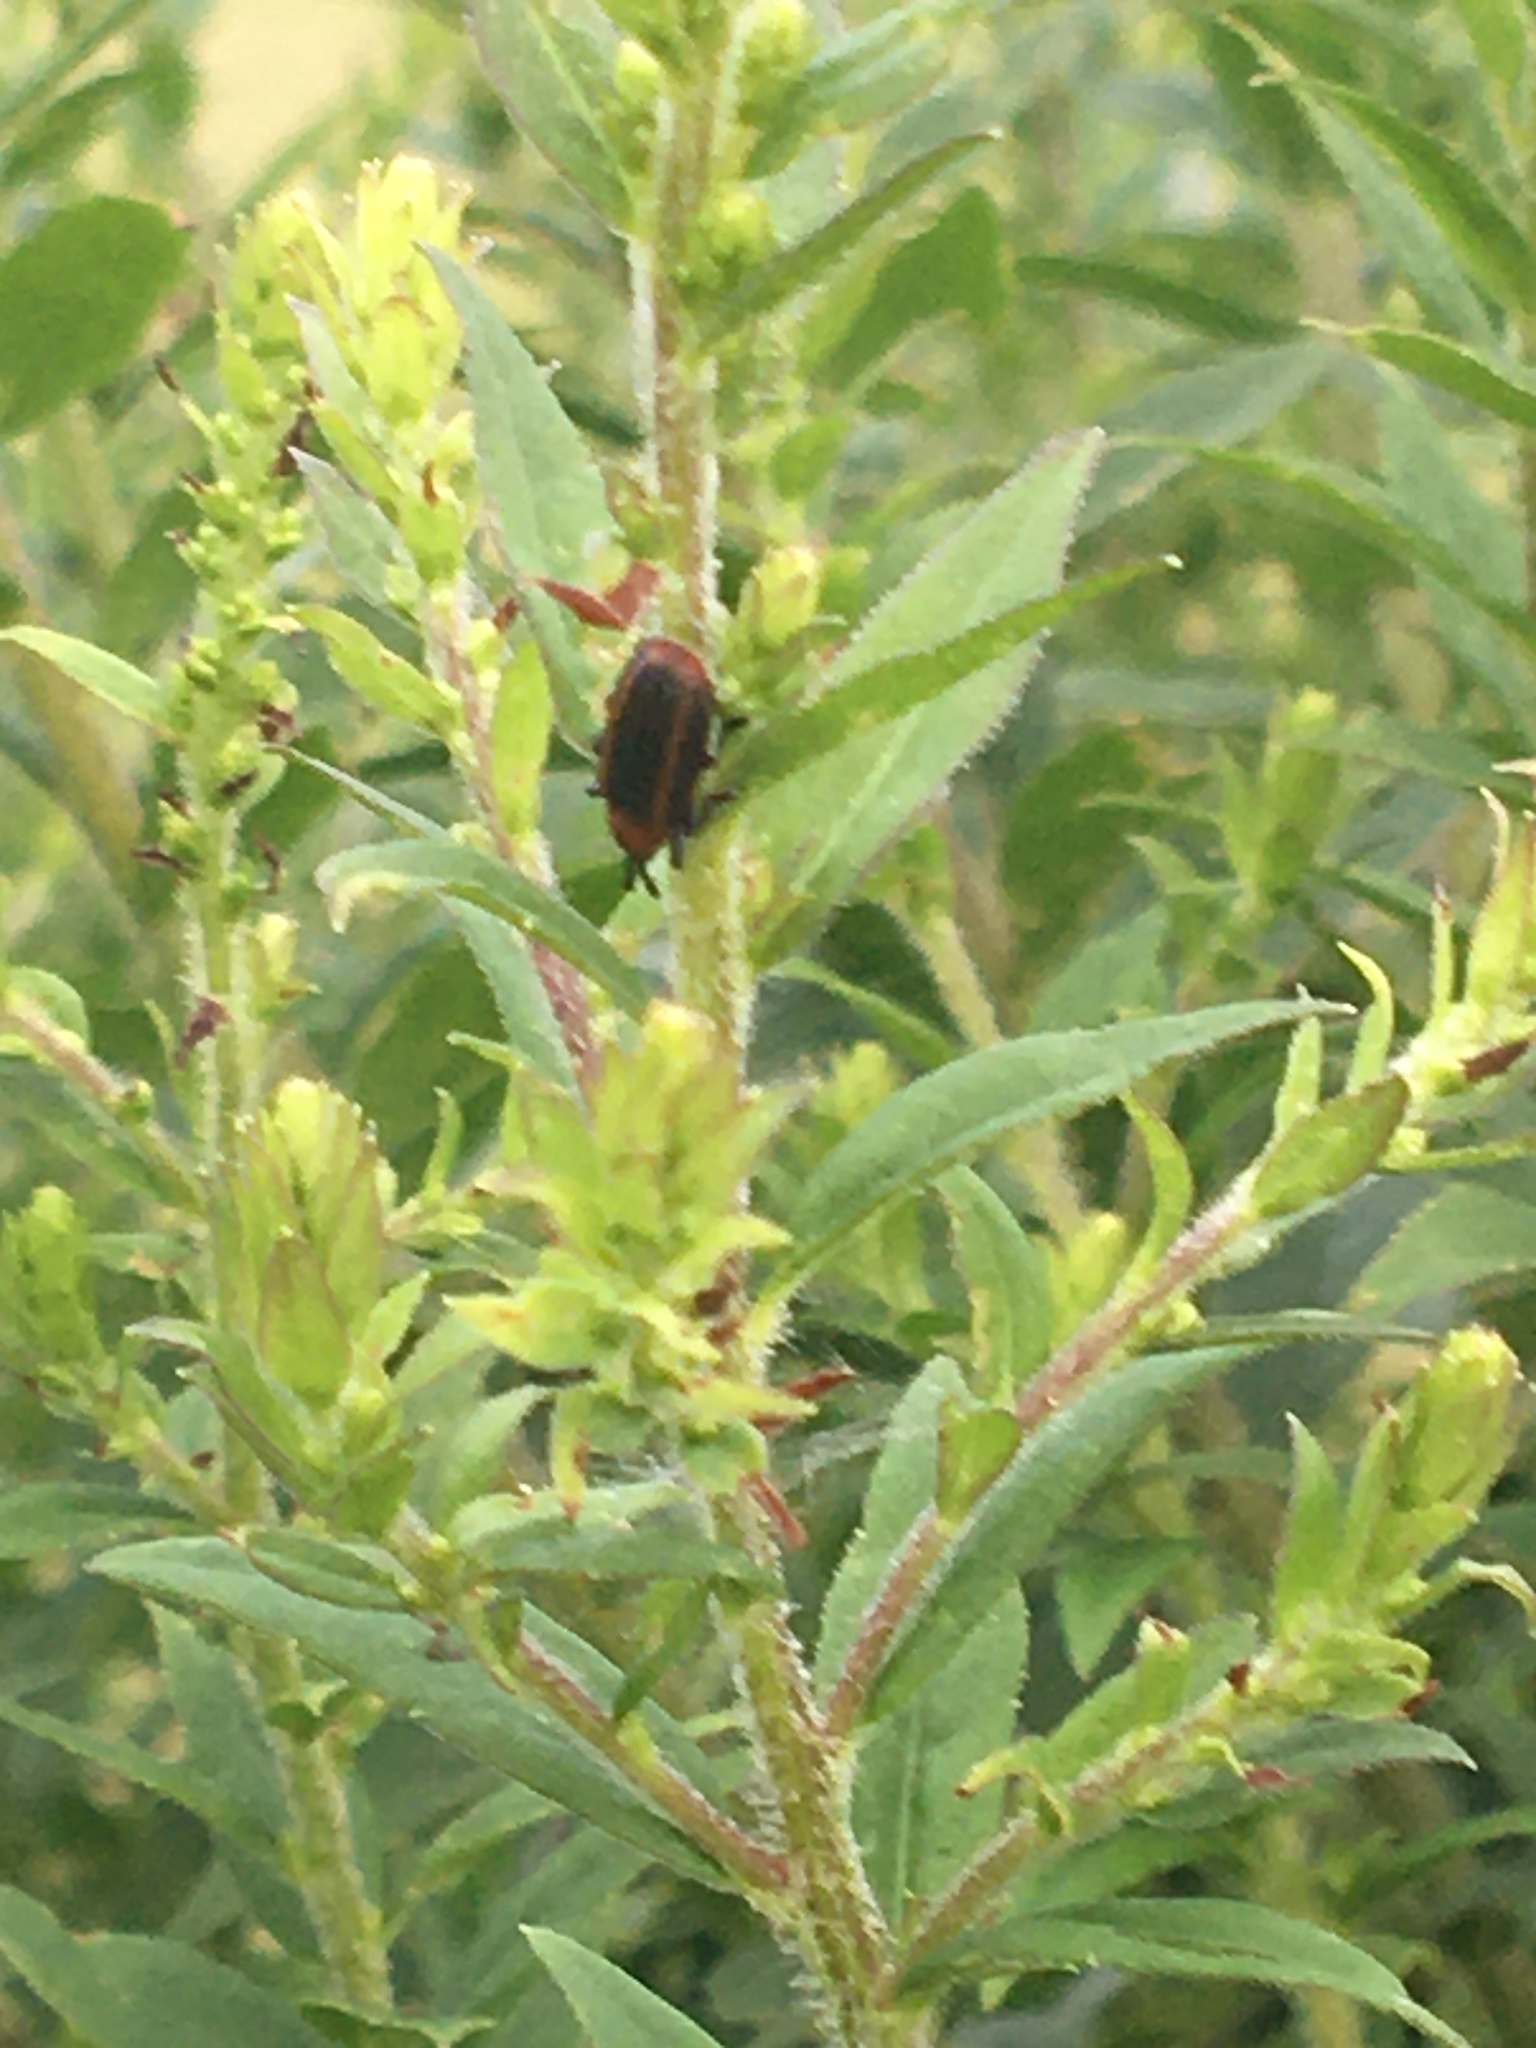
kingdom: Animalia
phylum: Arthropoda
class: Insecta
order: Coleoptera
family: Chrysomelidae
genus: Microrhopala
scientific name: Microrhopala vittata
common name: Goldenrod leaf miner beetle
